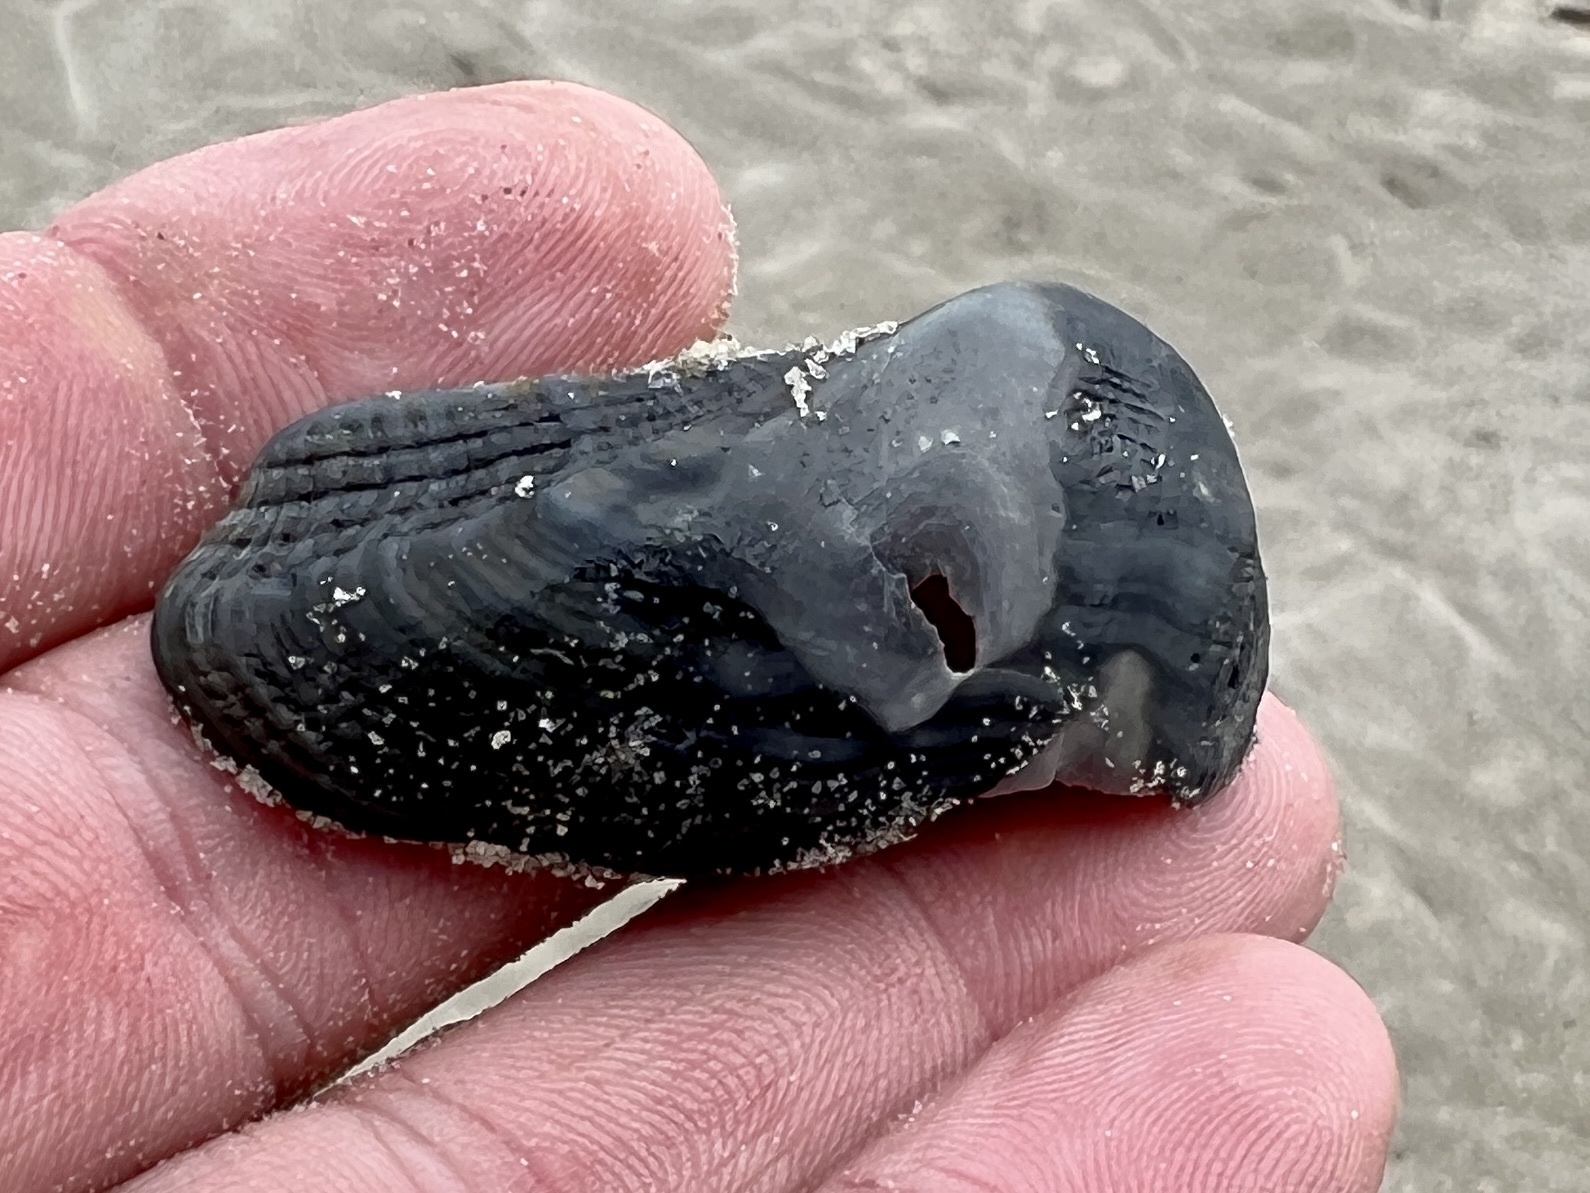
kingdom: Animalia
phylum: Mollusca
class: Bivalvia
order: Arcida
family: Arcidae
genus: Lamarcka
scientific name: Lamarcka imbricata
